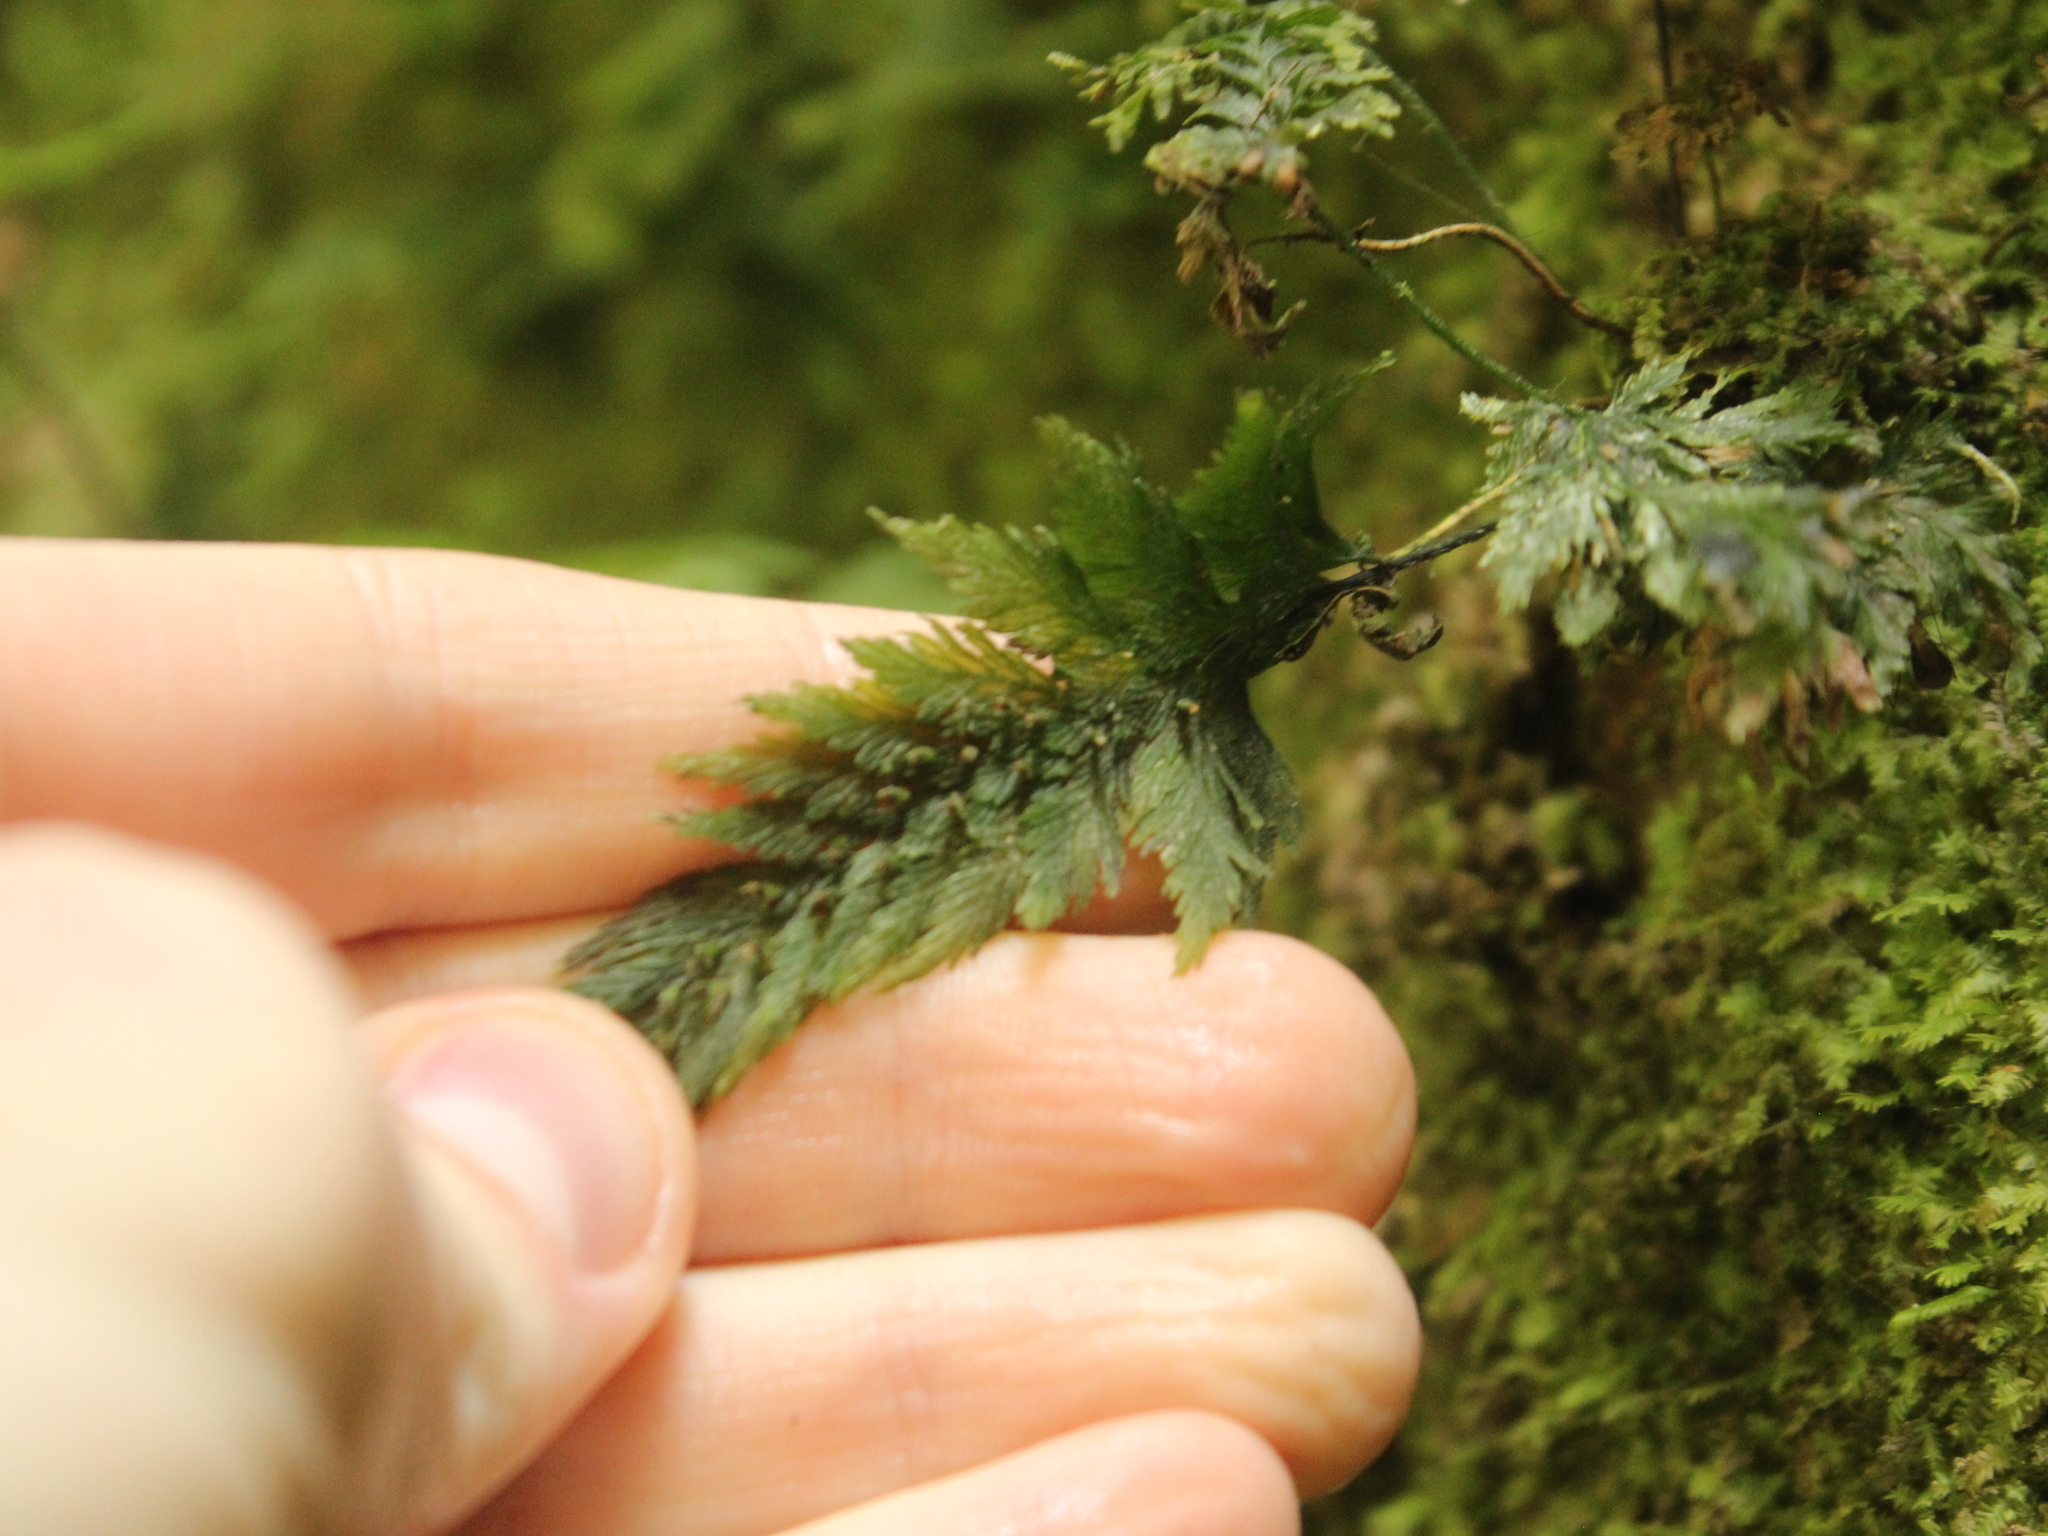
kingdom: Plantae
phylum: Tracheophyta
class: Polypodiopsida
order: Hymenophyllales
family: Hymenophyllaceae
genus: Abrodictyum
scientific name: Abrodictyum elongatum
